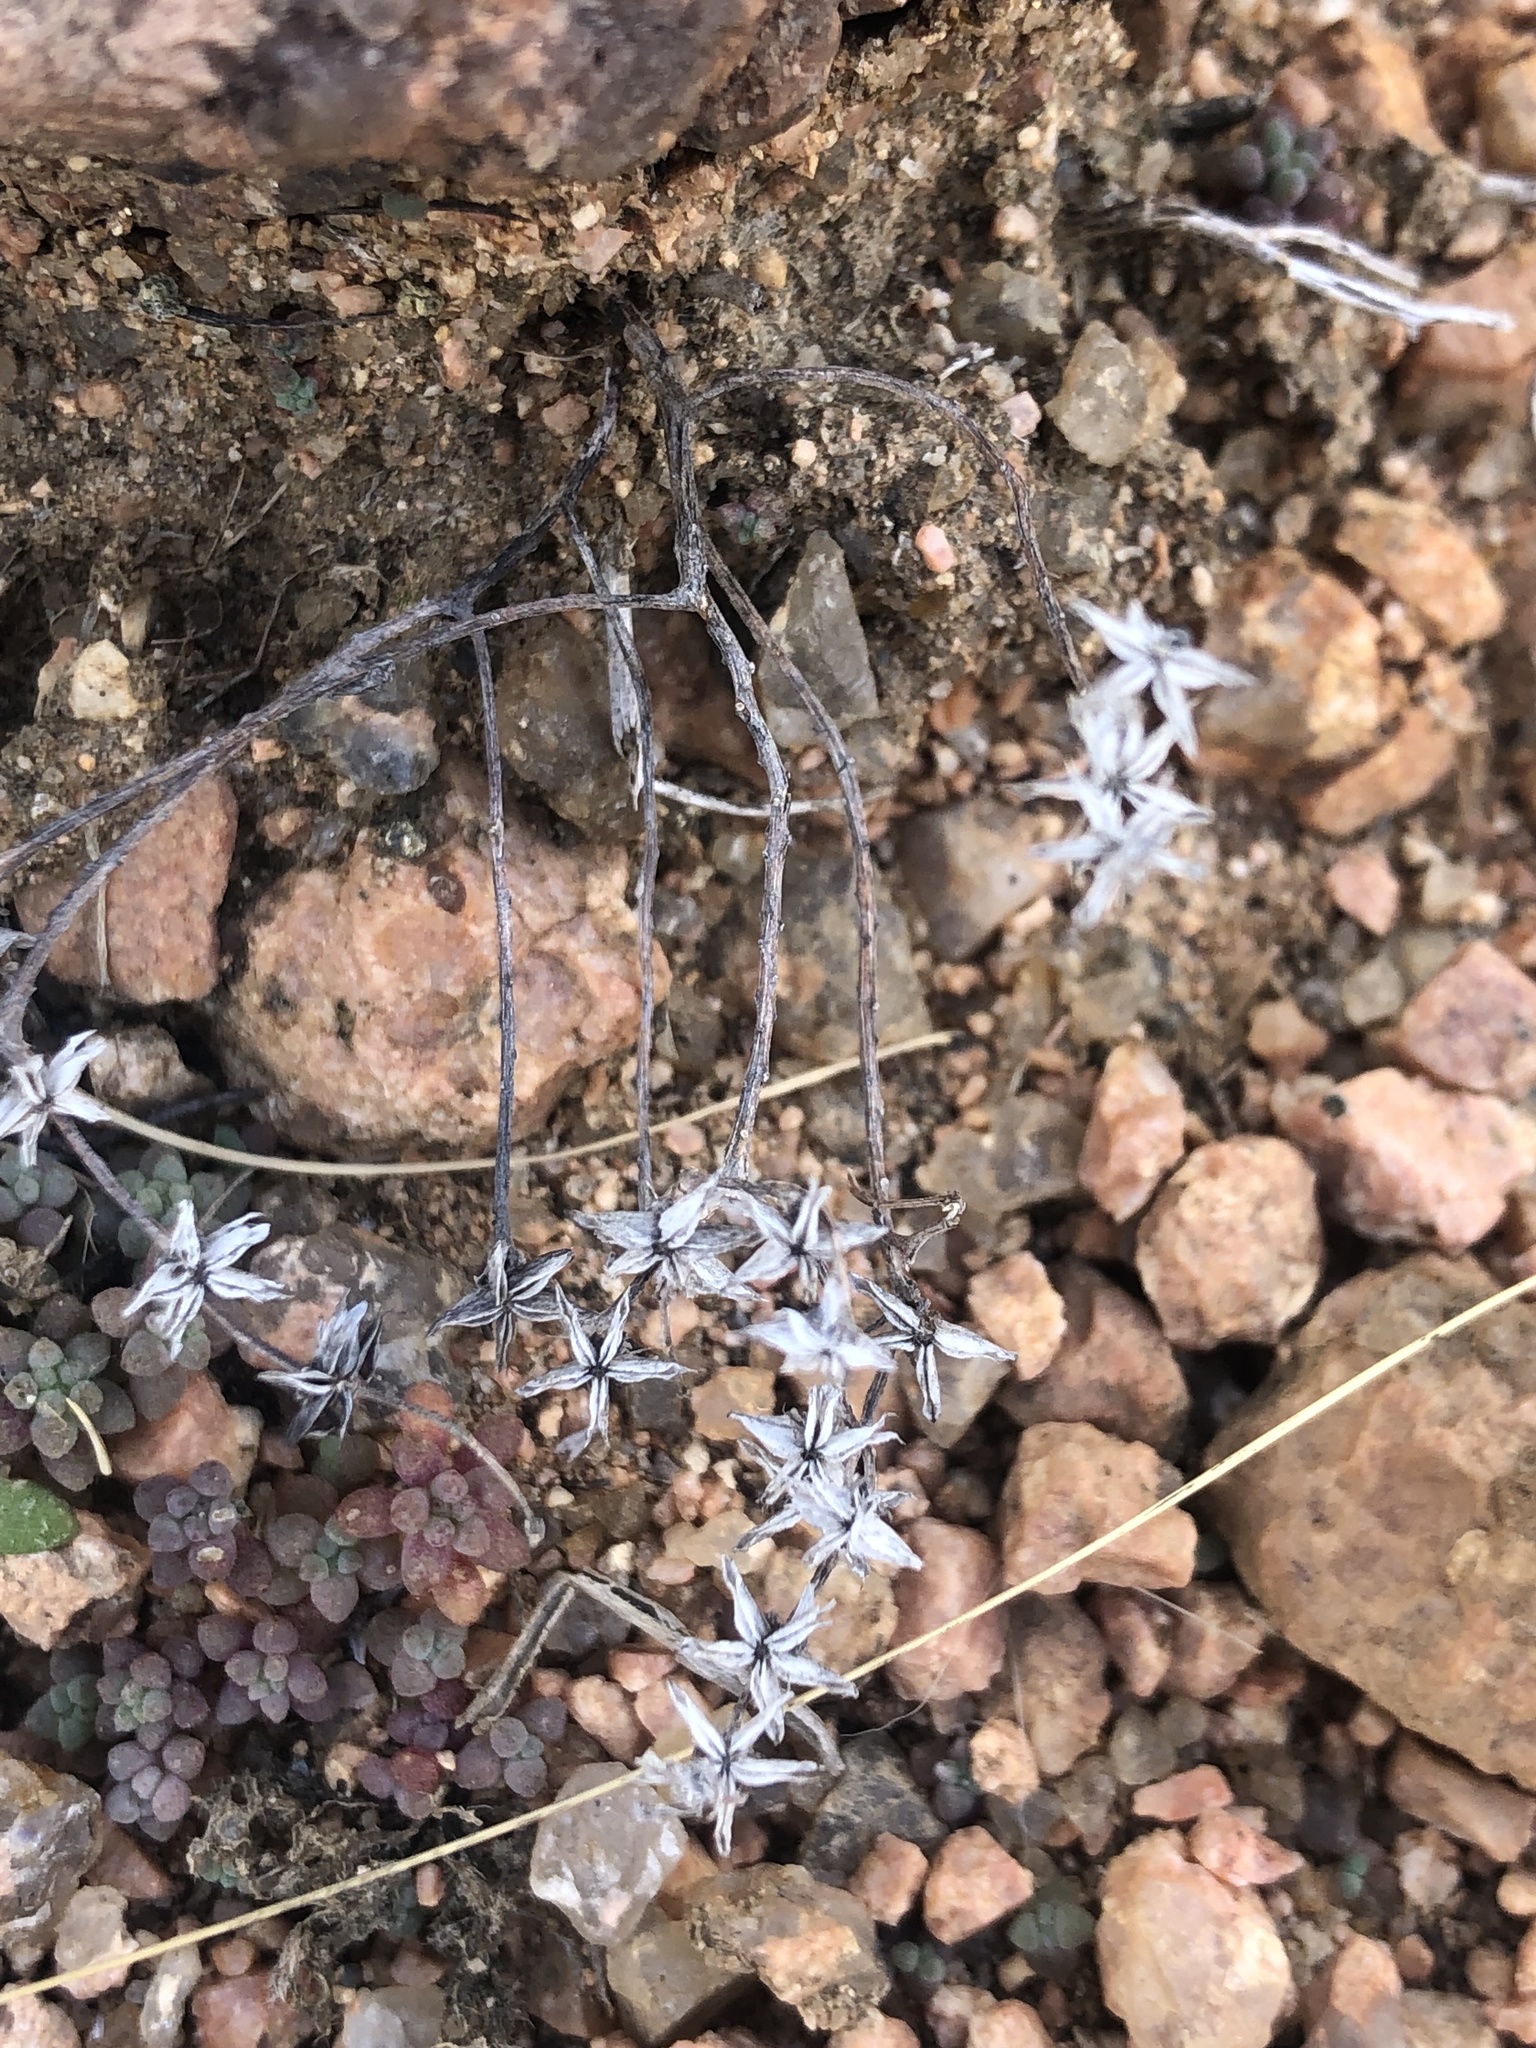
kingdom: Plantae
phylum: Tracheophyta
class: Magnoliopsida
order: Saxifragales
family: Crassulaceae
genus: Sedum
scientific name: Sedum nuttallii
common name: Yellow stonecrop
